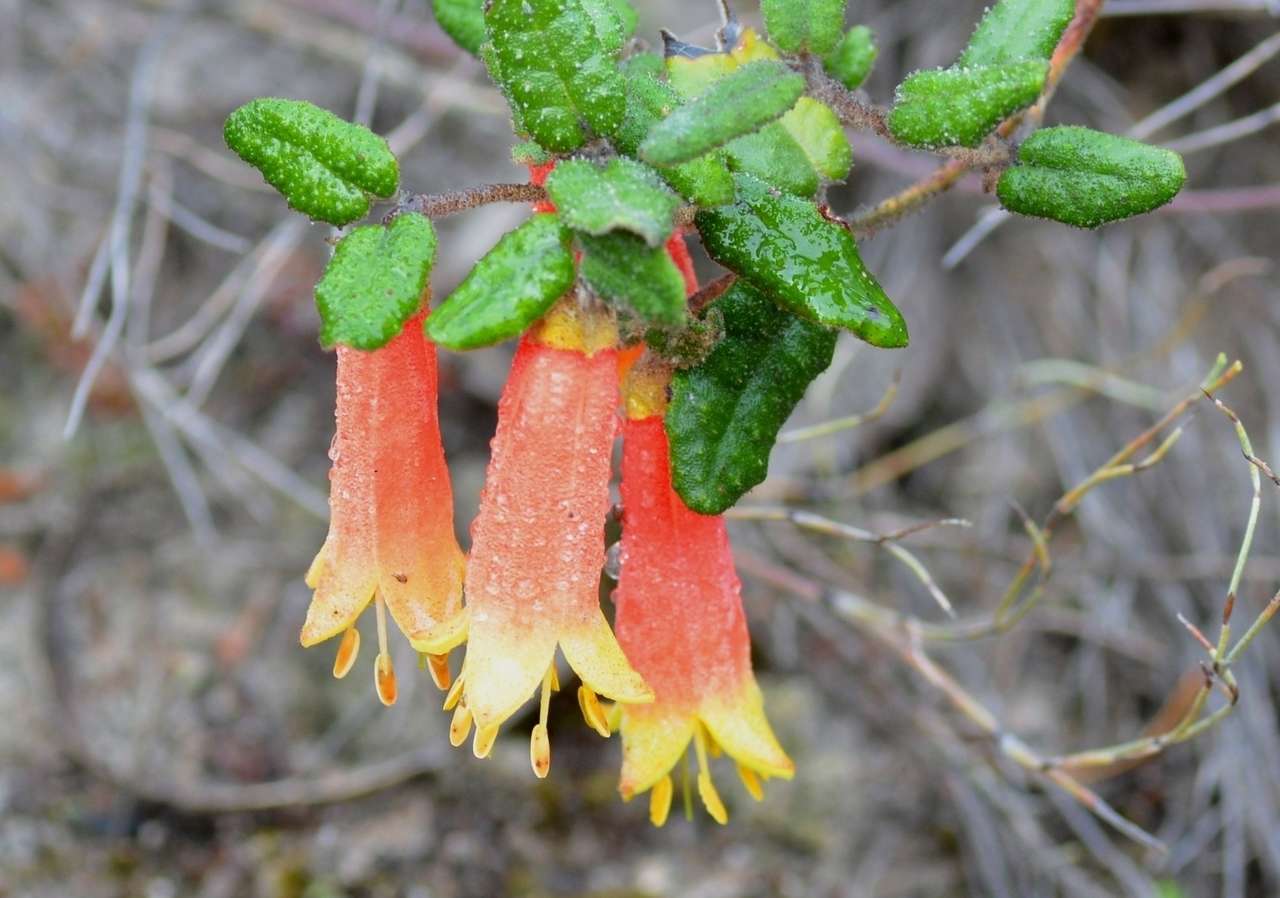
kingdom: Plantae
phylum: Tracheophyta
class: Magnoliopsida
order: Sapindales
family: Rutaceae
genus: Correa
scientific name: Correa reflexa
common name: Common correa
